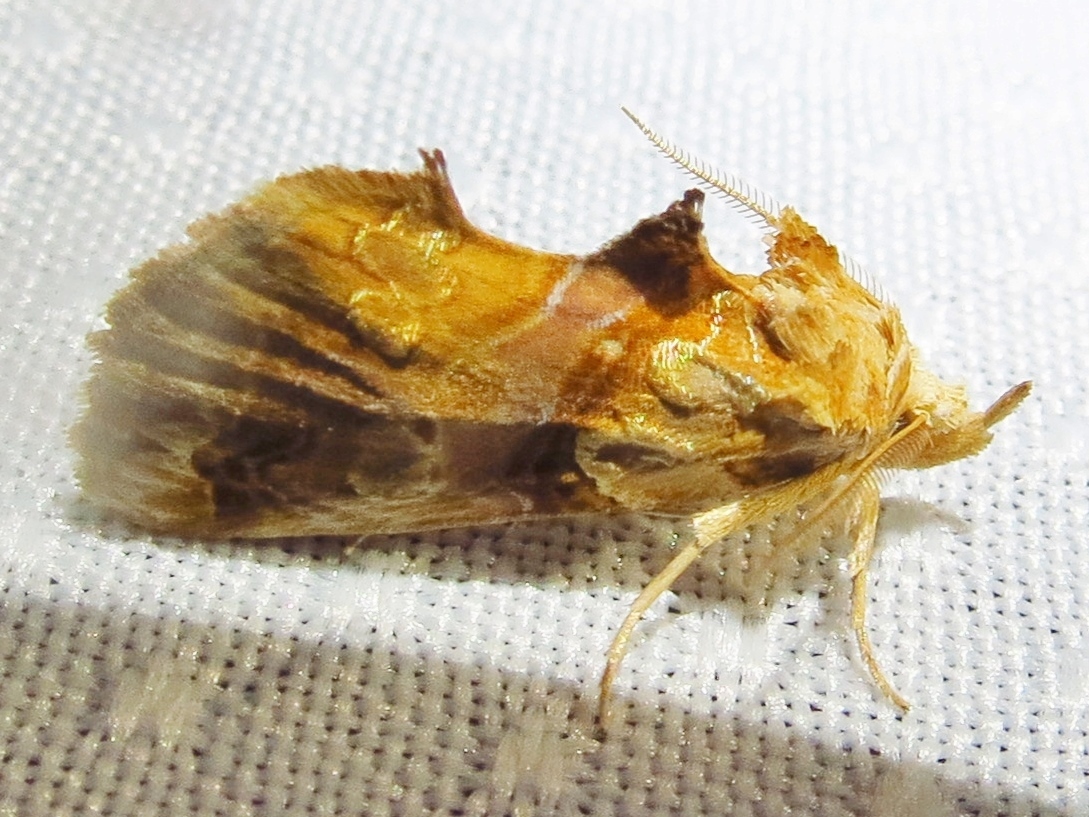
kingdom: Animalia
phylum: Arthropoda
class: Insecta
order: Lepidoptera
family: Erebidae
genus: Plusiodonta
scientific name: Plusiodonta compressipalpis
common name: Moonseed moth
